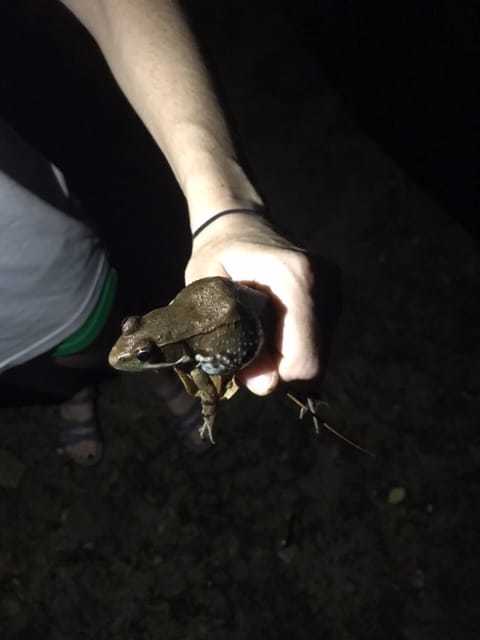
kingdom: Animalia
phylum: Chordata
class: Amphibia
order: Anura
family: Ranidae
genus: Lithobates
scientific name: Lithobates clamitans
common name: Green frog
